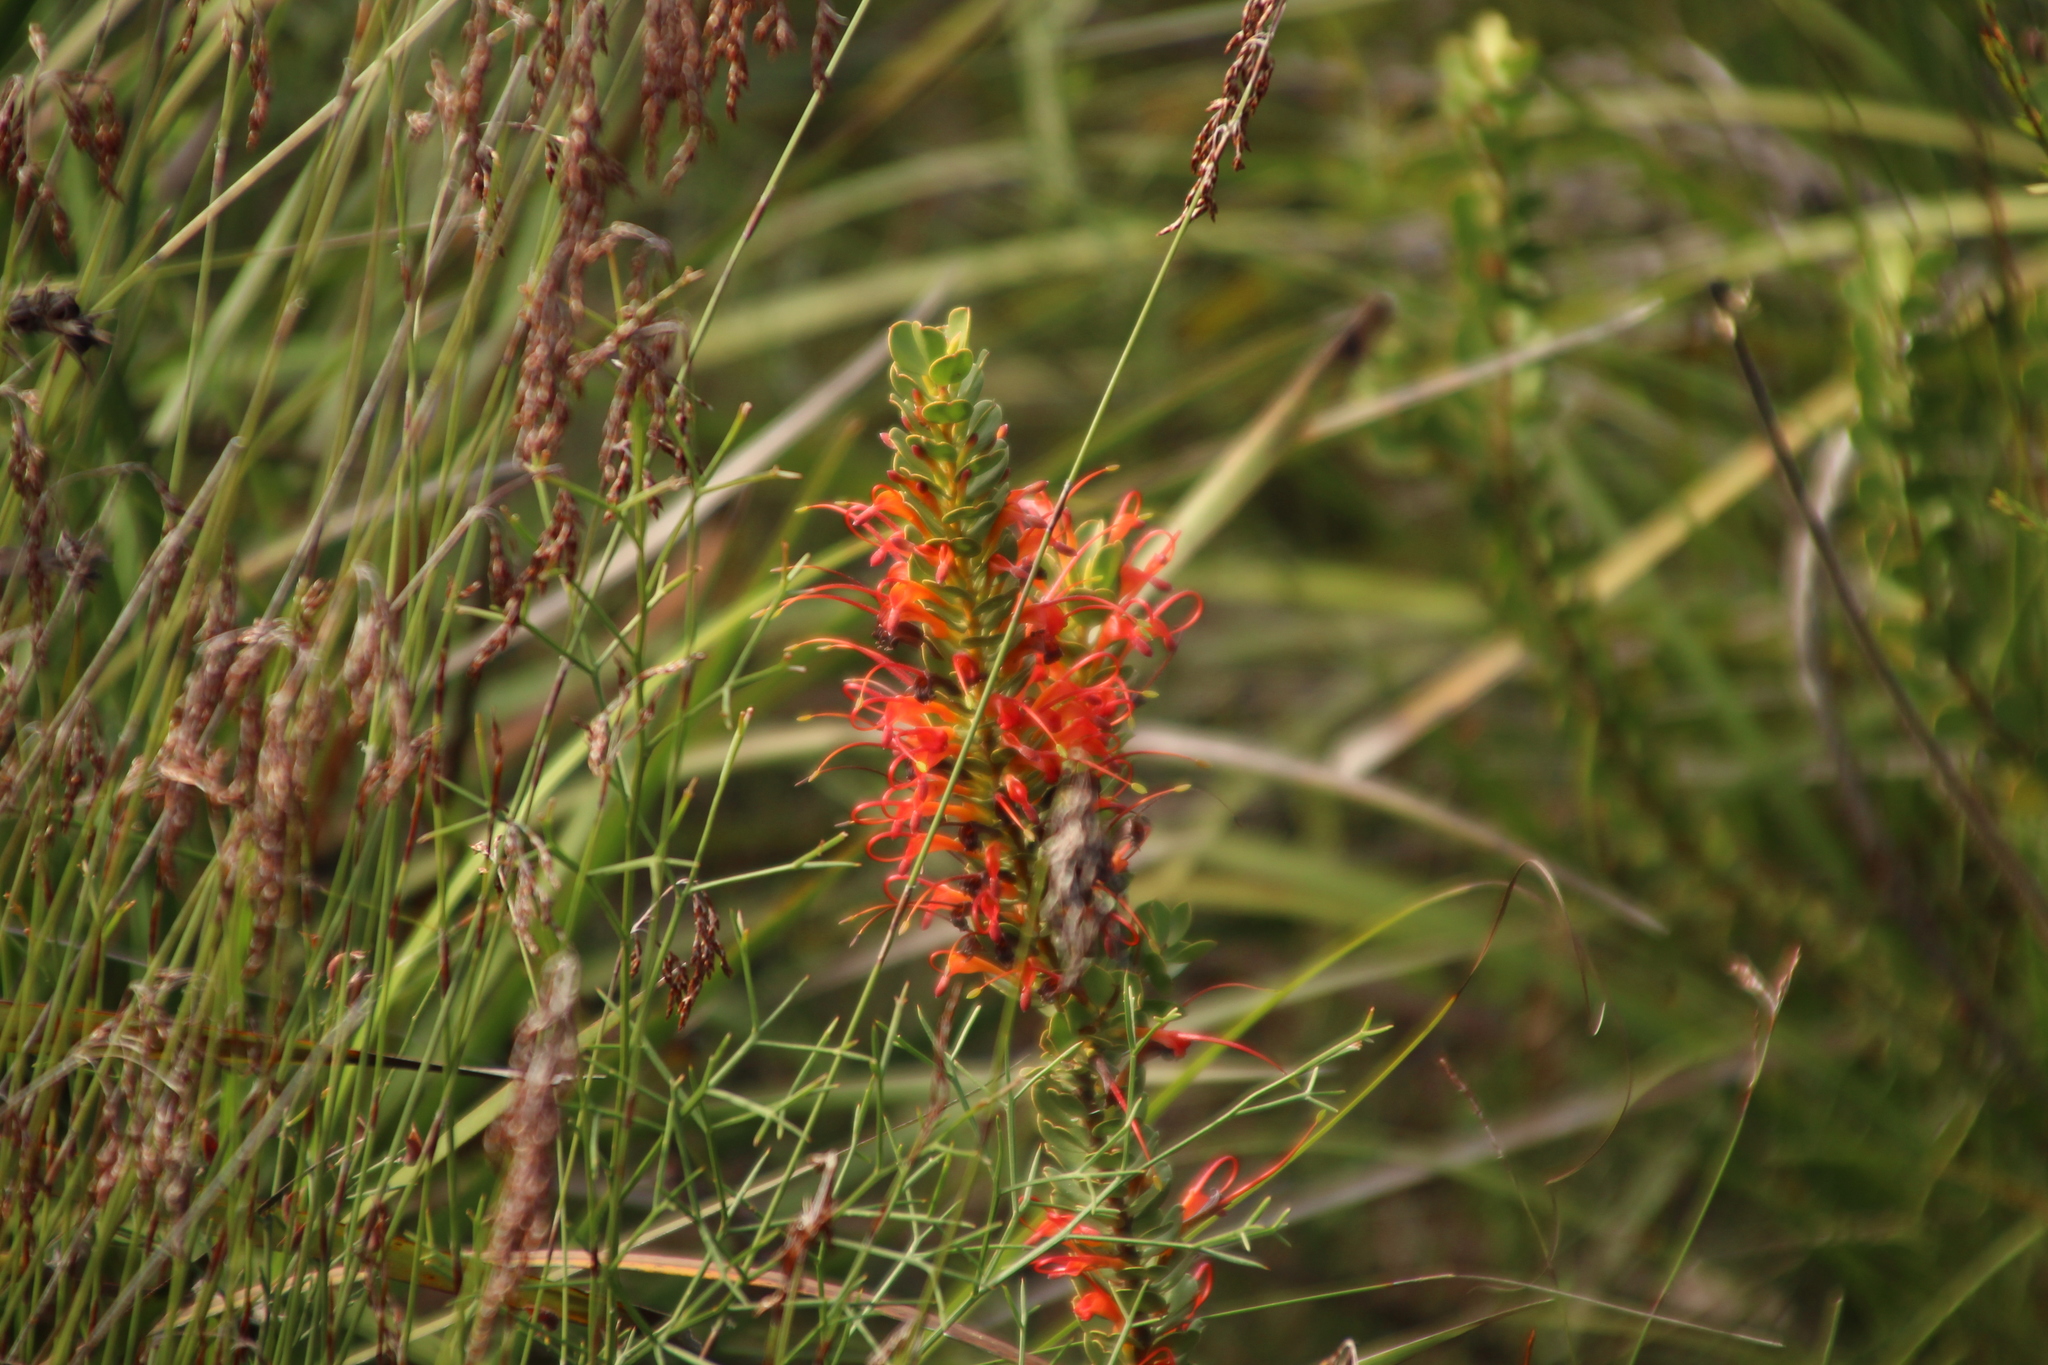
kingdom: Plantae
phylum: Tracheophyta
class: Magnoliopsida
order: Proteales
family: Proteaceae
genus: Adenanthos
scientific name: Adenanthos obovatus
